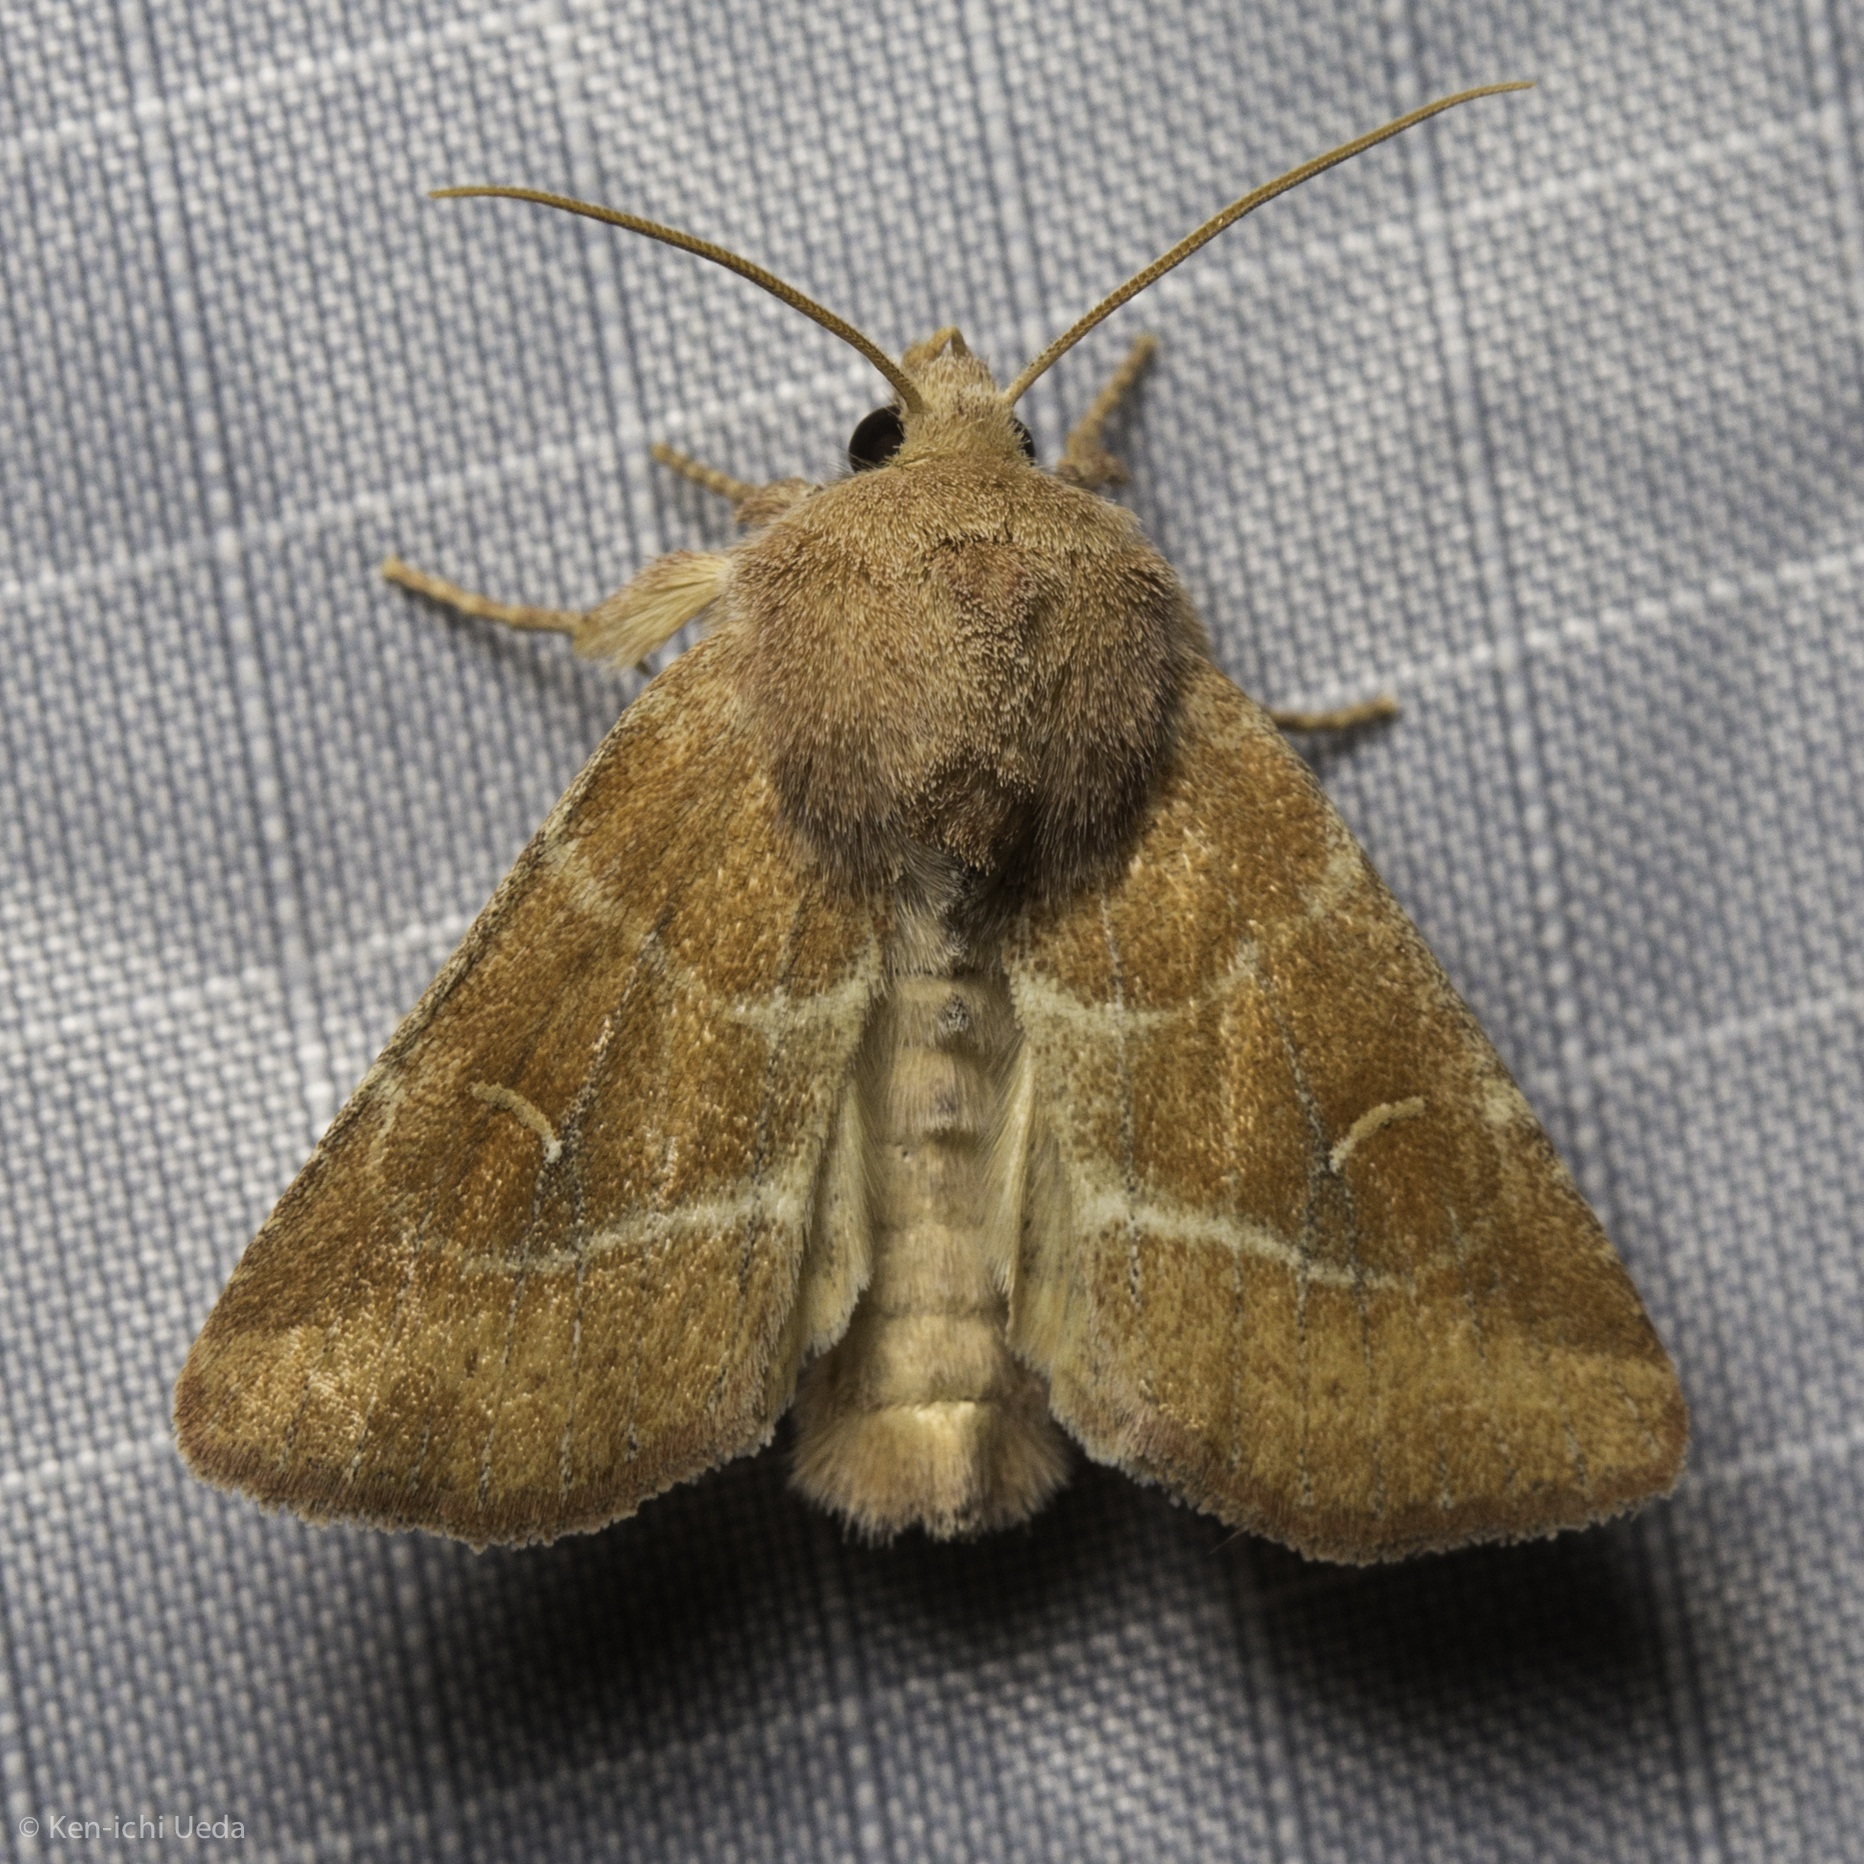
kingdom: Animalia
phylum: Arthropoda
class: Insecta
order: Lepidoptera
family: Noctuidae
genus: Eriopyga
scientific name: Eriopyga lunata
